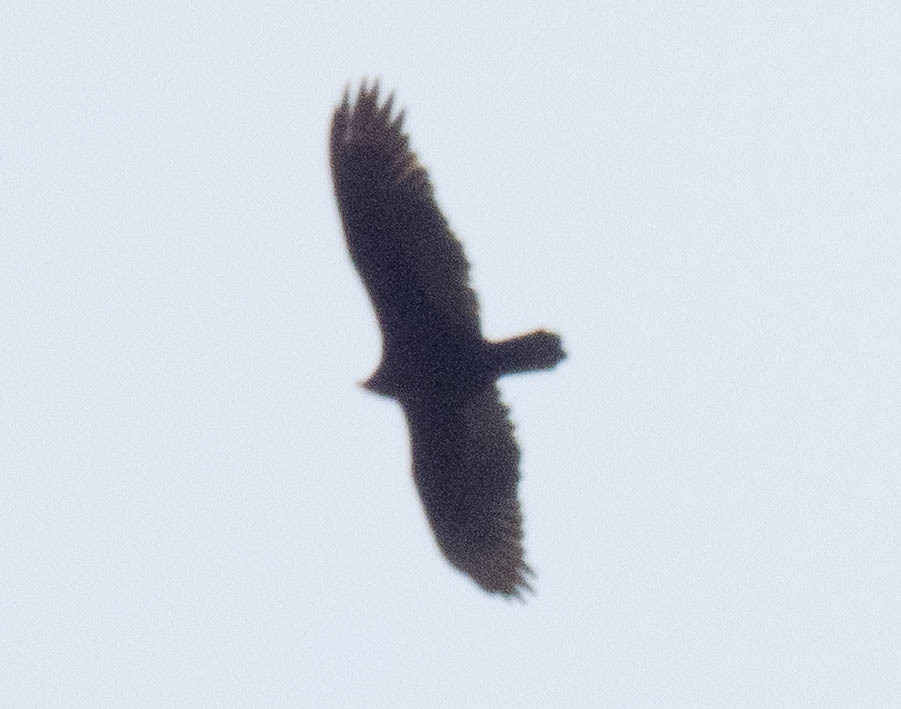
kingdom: Animalia
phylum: Chordata
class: Aves
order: Accipitriformes
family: Cathartidae
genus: Cathartes
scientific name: Cathartes aura
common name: Turkey vulture
